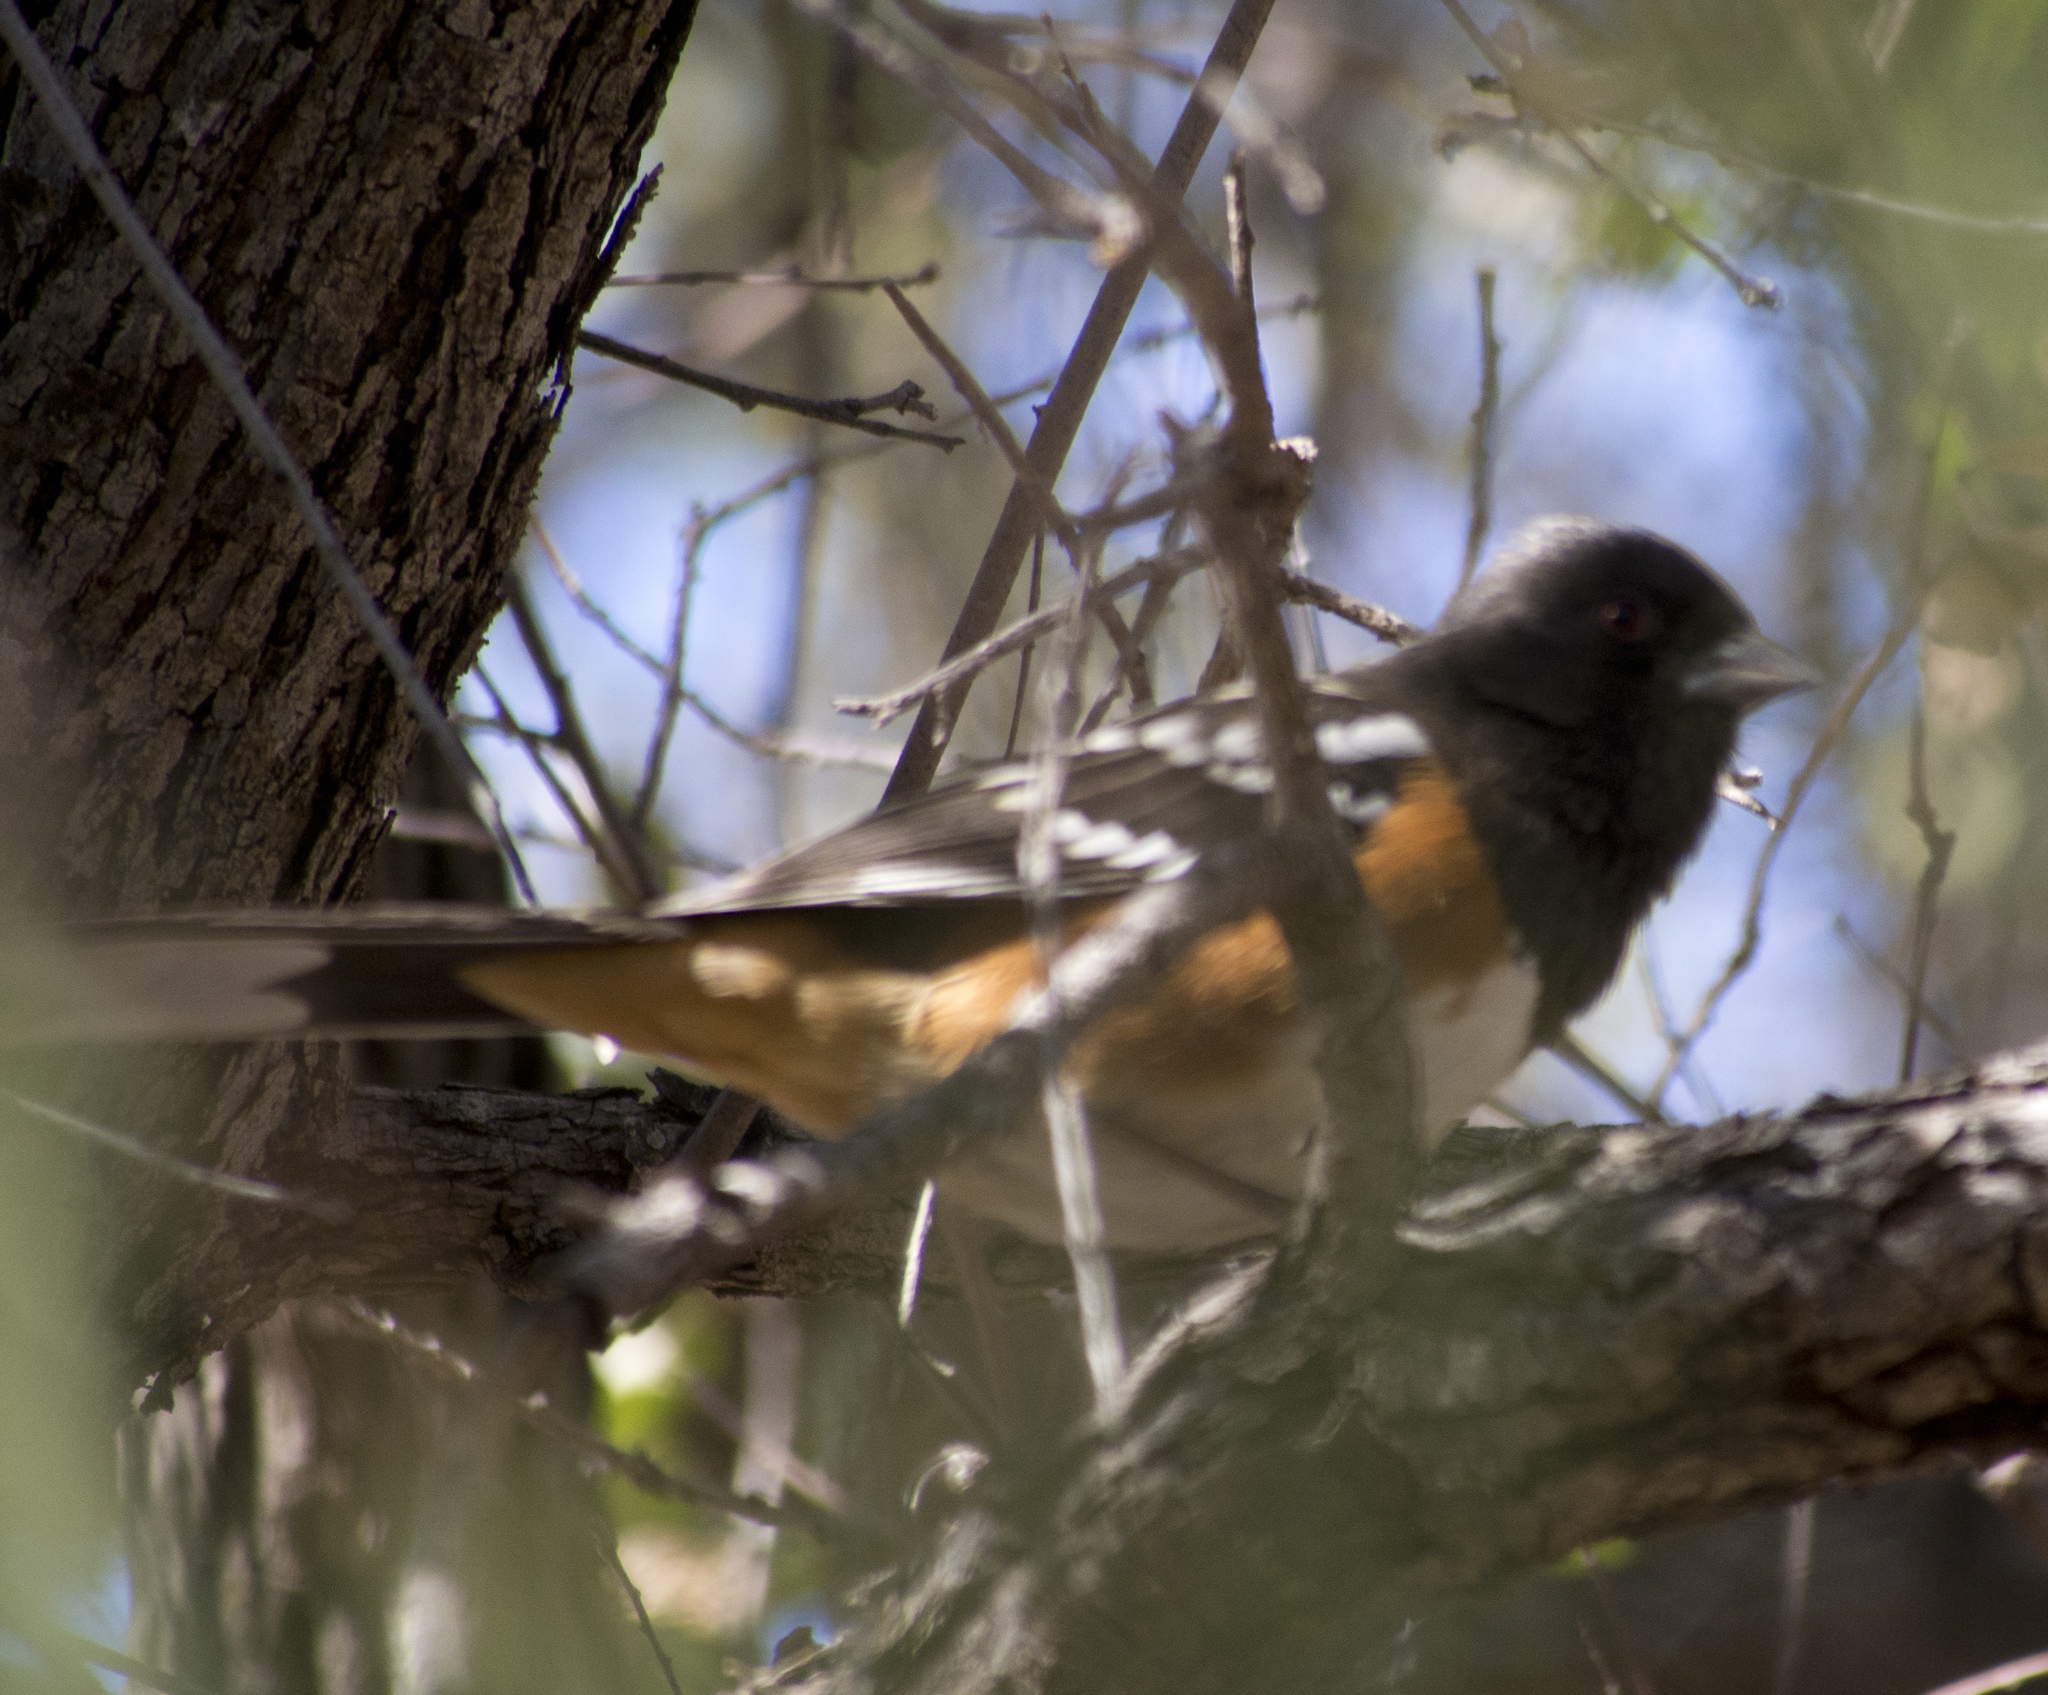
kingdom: Animalia
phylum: Chordata
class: Aves
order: Passeriformes
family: Passerellidae
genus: Pipilo
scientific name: Pipilo maculatus
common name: Spotted towhee
